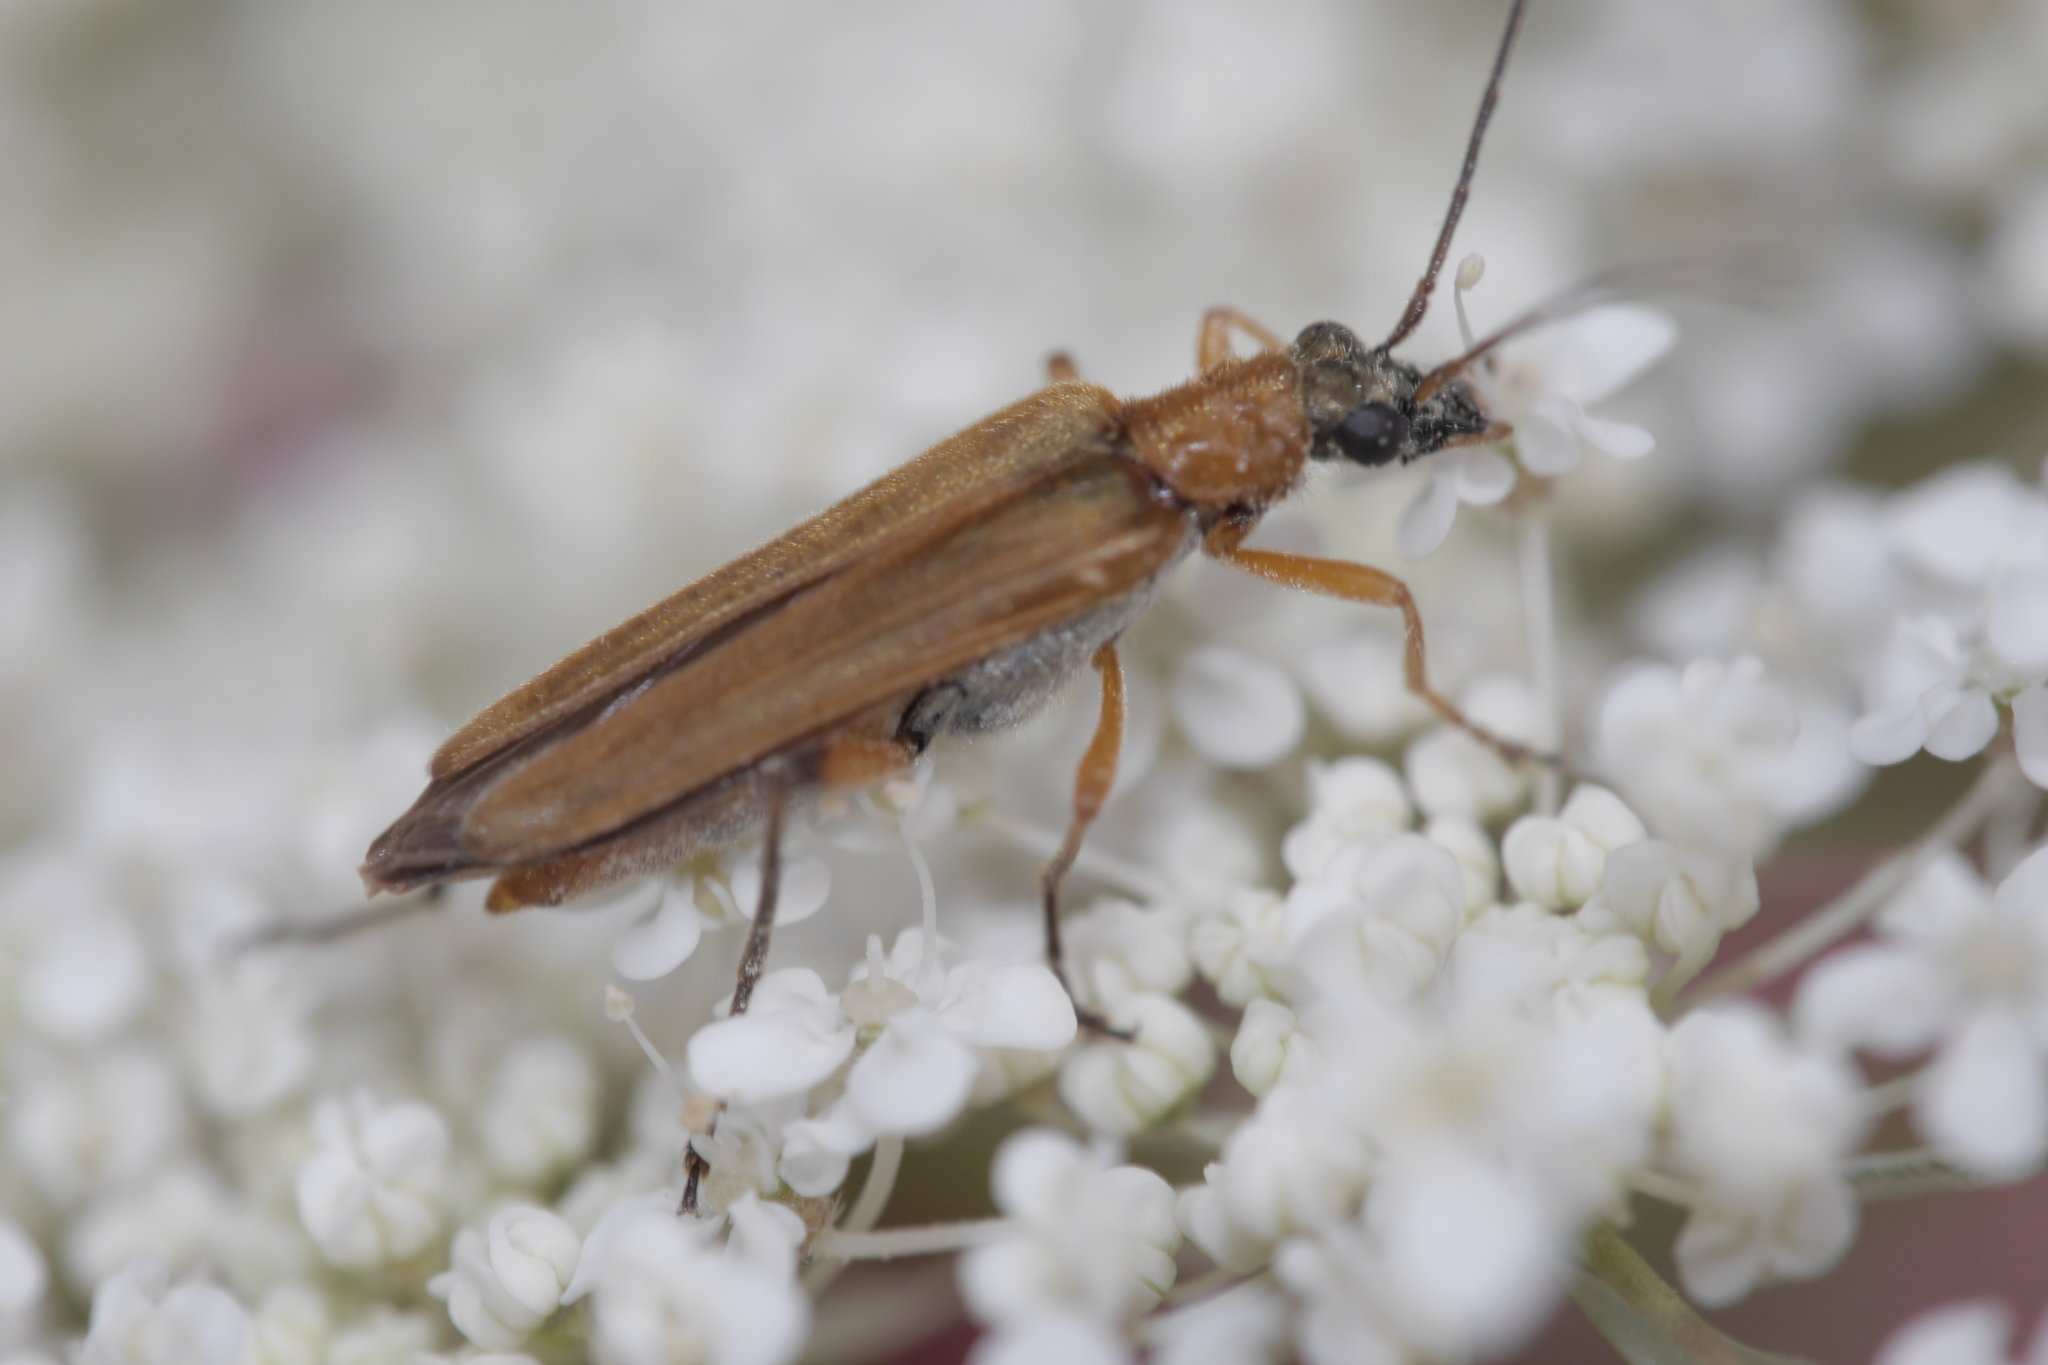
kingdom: Animalia
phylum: Arthropoda
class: Insecta
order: Coleoptera
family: Oedemeridae
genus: Oedemera
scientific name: Oedemera podagrariae
